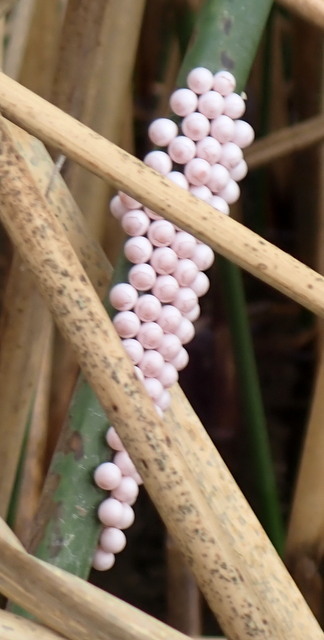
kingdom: Animalia
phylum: Mollusca
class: Gastropoda
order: Architaenioglossa
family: Ampullariidae
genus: Pomacea
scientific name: Pomacea paludosa
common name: Florida applesnail
